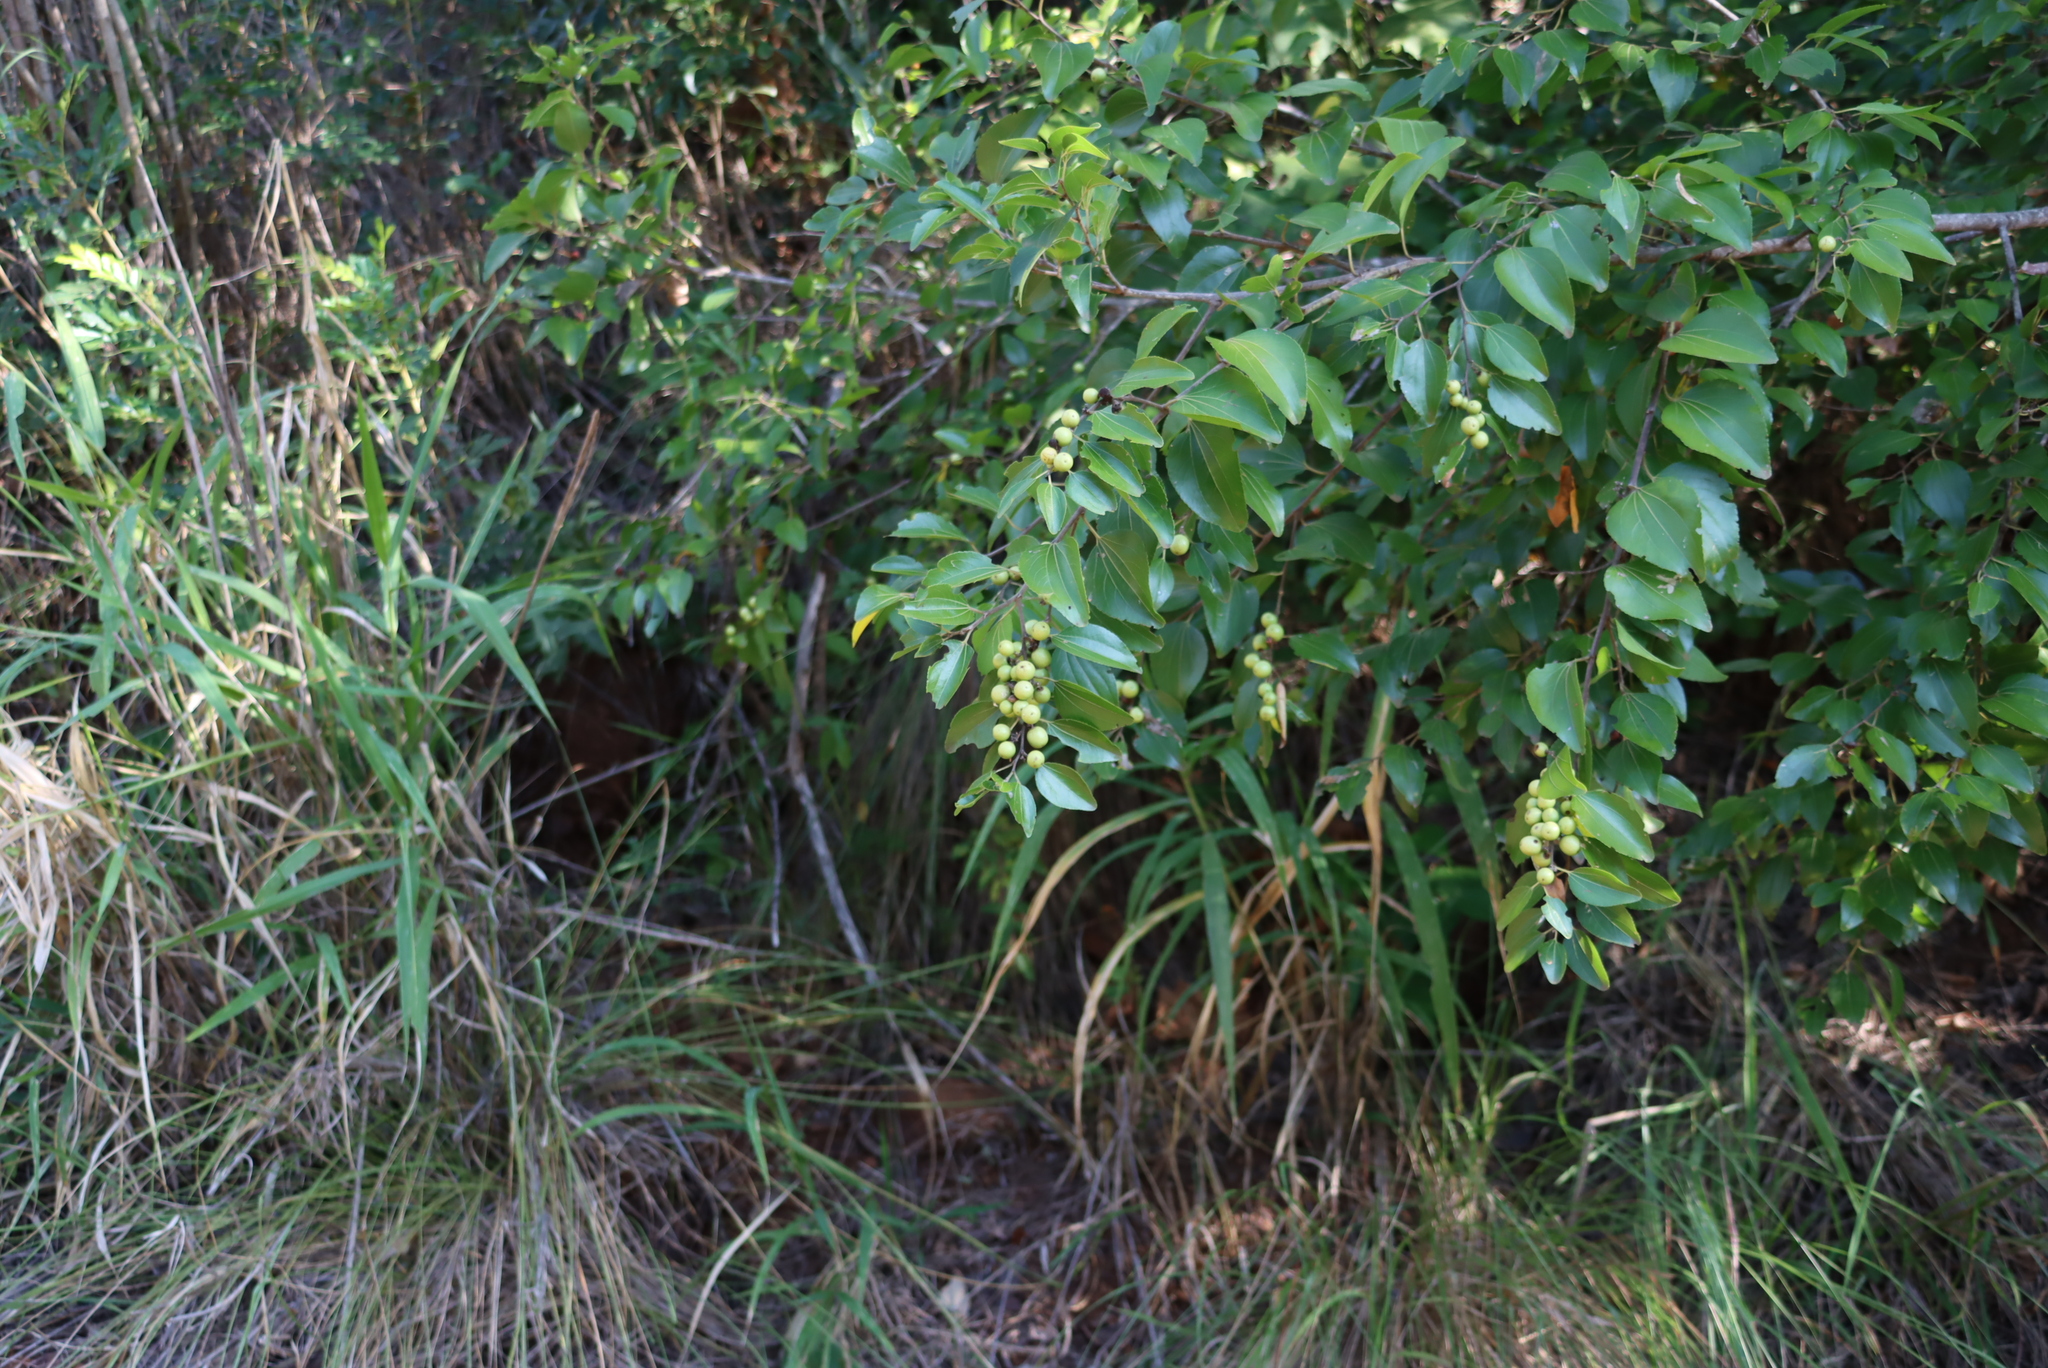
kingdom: Plantae
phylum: Tracheophyta
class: Magnoliopsida
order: Rosales
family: Rhamnaceae
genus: Ziziphus
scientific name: Ziziphus mucronata
